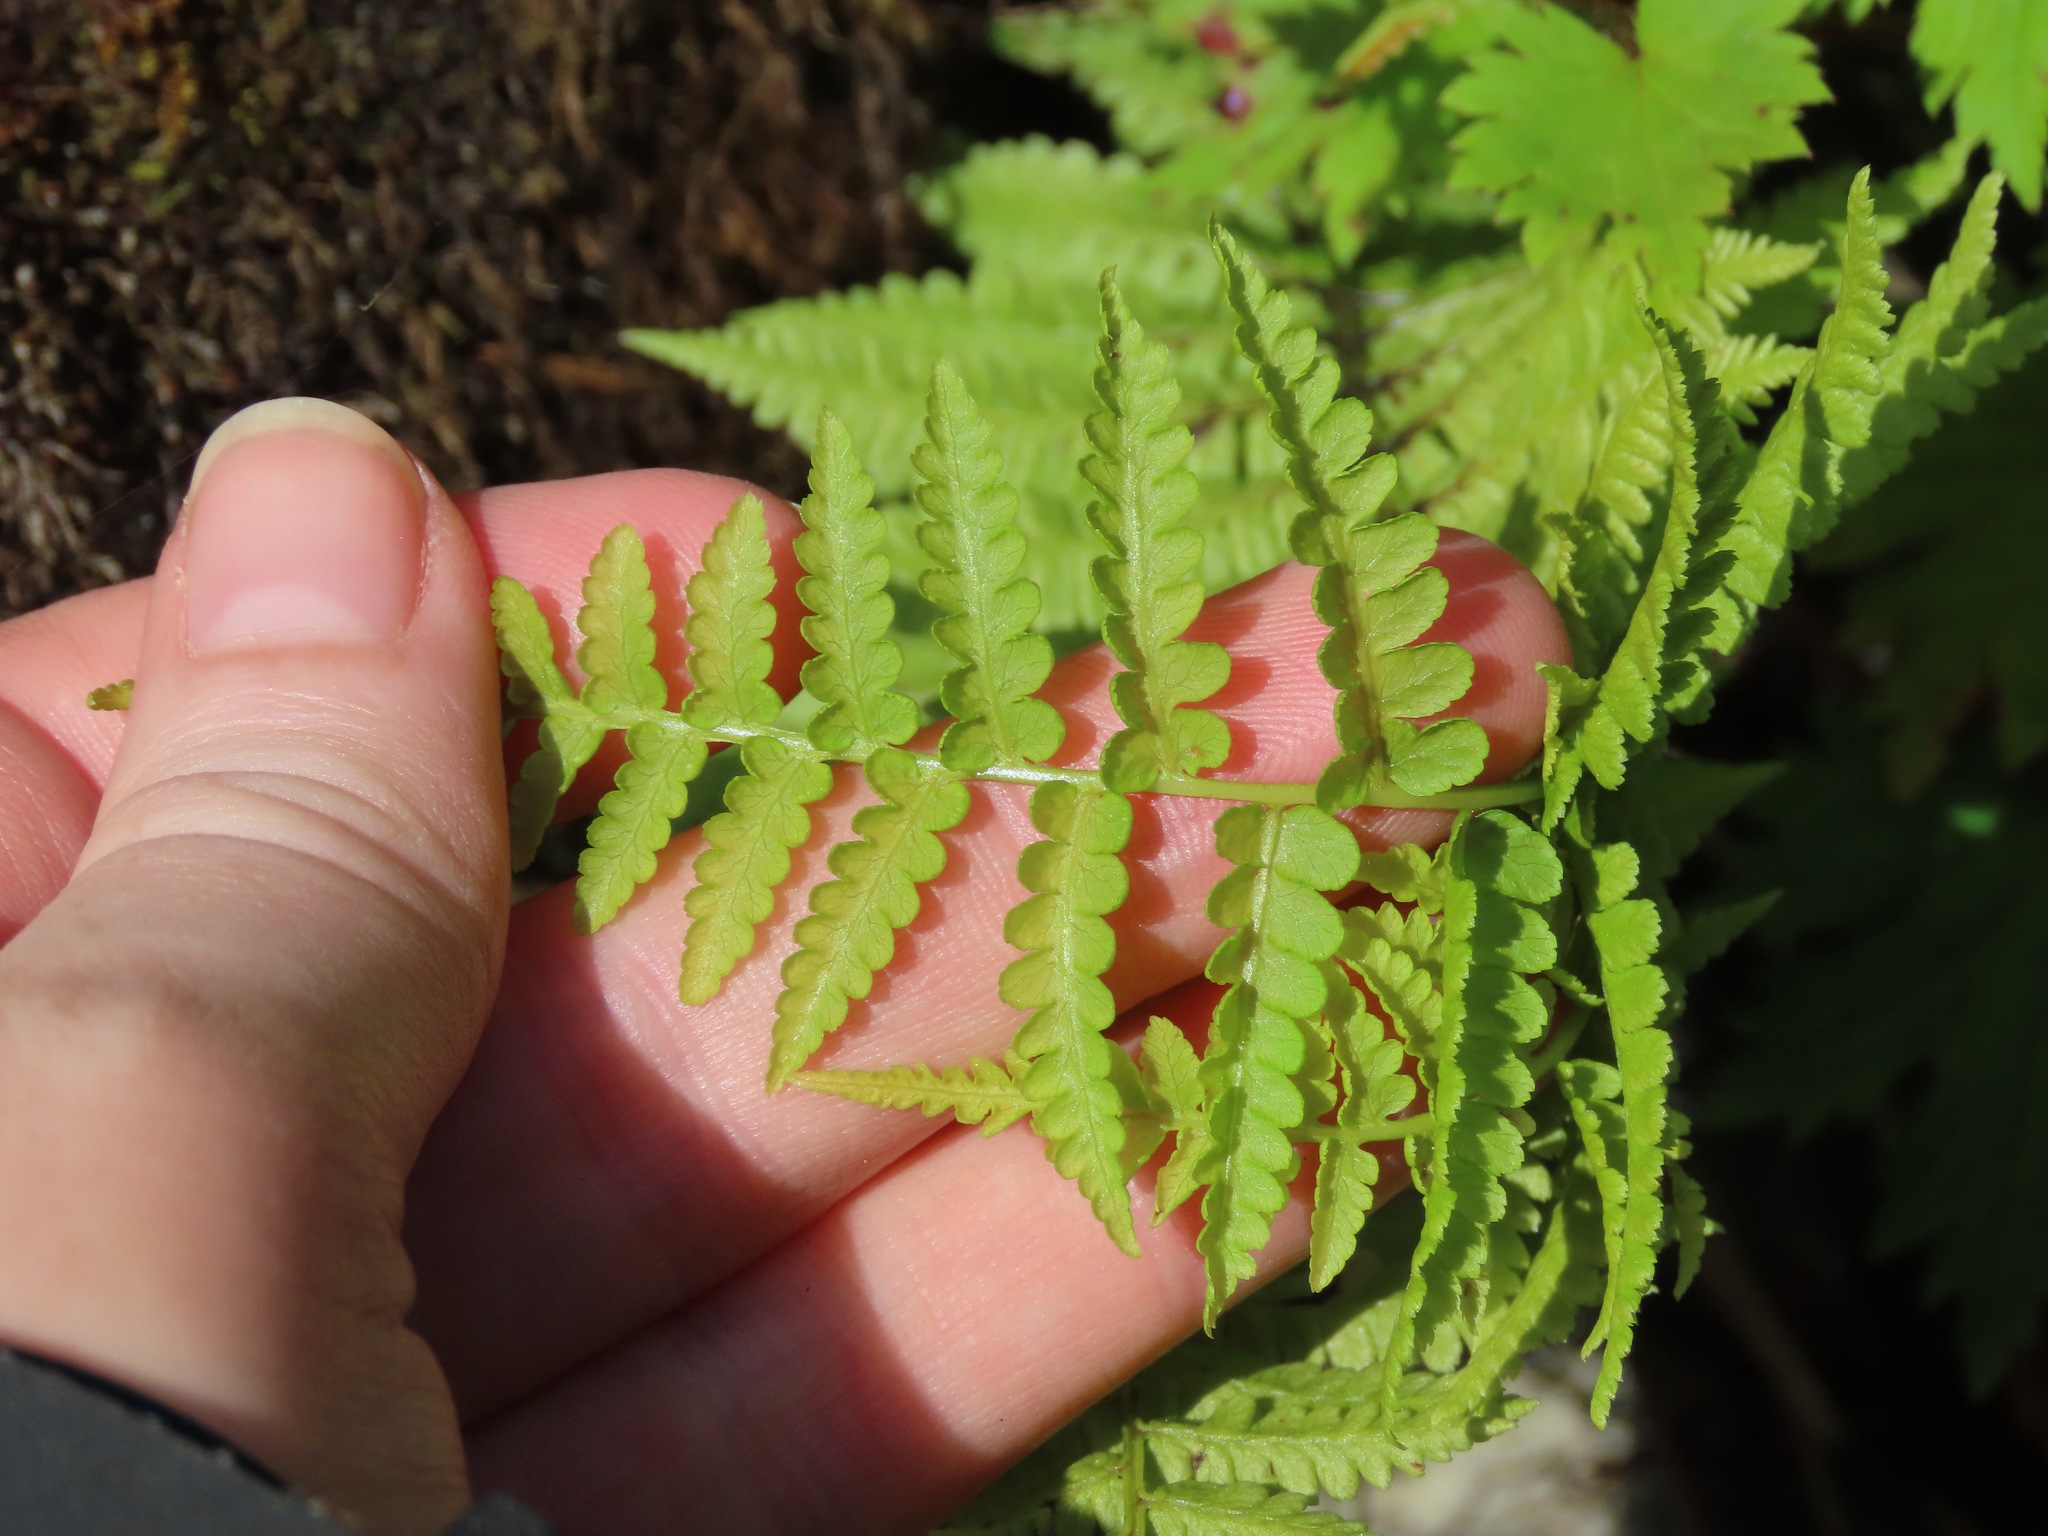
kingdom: Plantae
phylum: Tracheophyta
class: Polypodiopsida
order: Polypodiales
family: Athyriaceae
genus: Athyrium
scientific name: Athyrium filix-femina
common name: Lady fern
